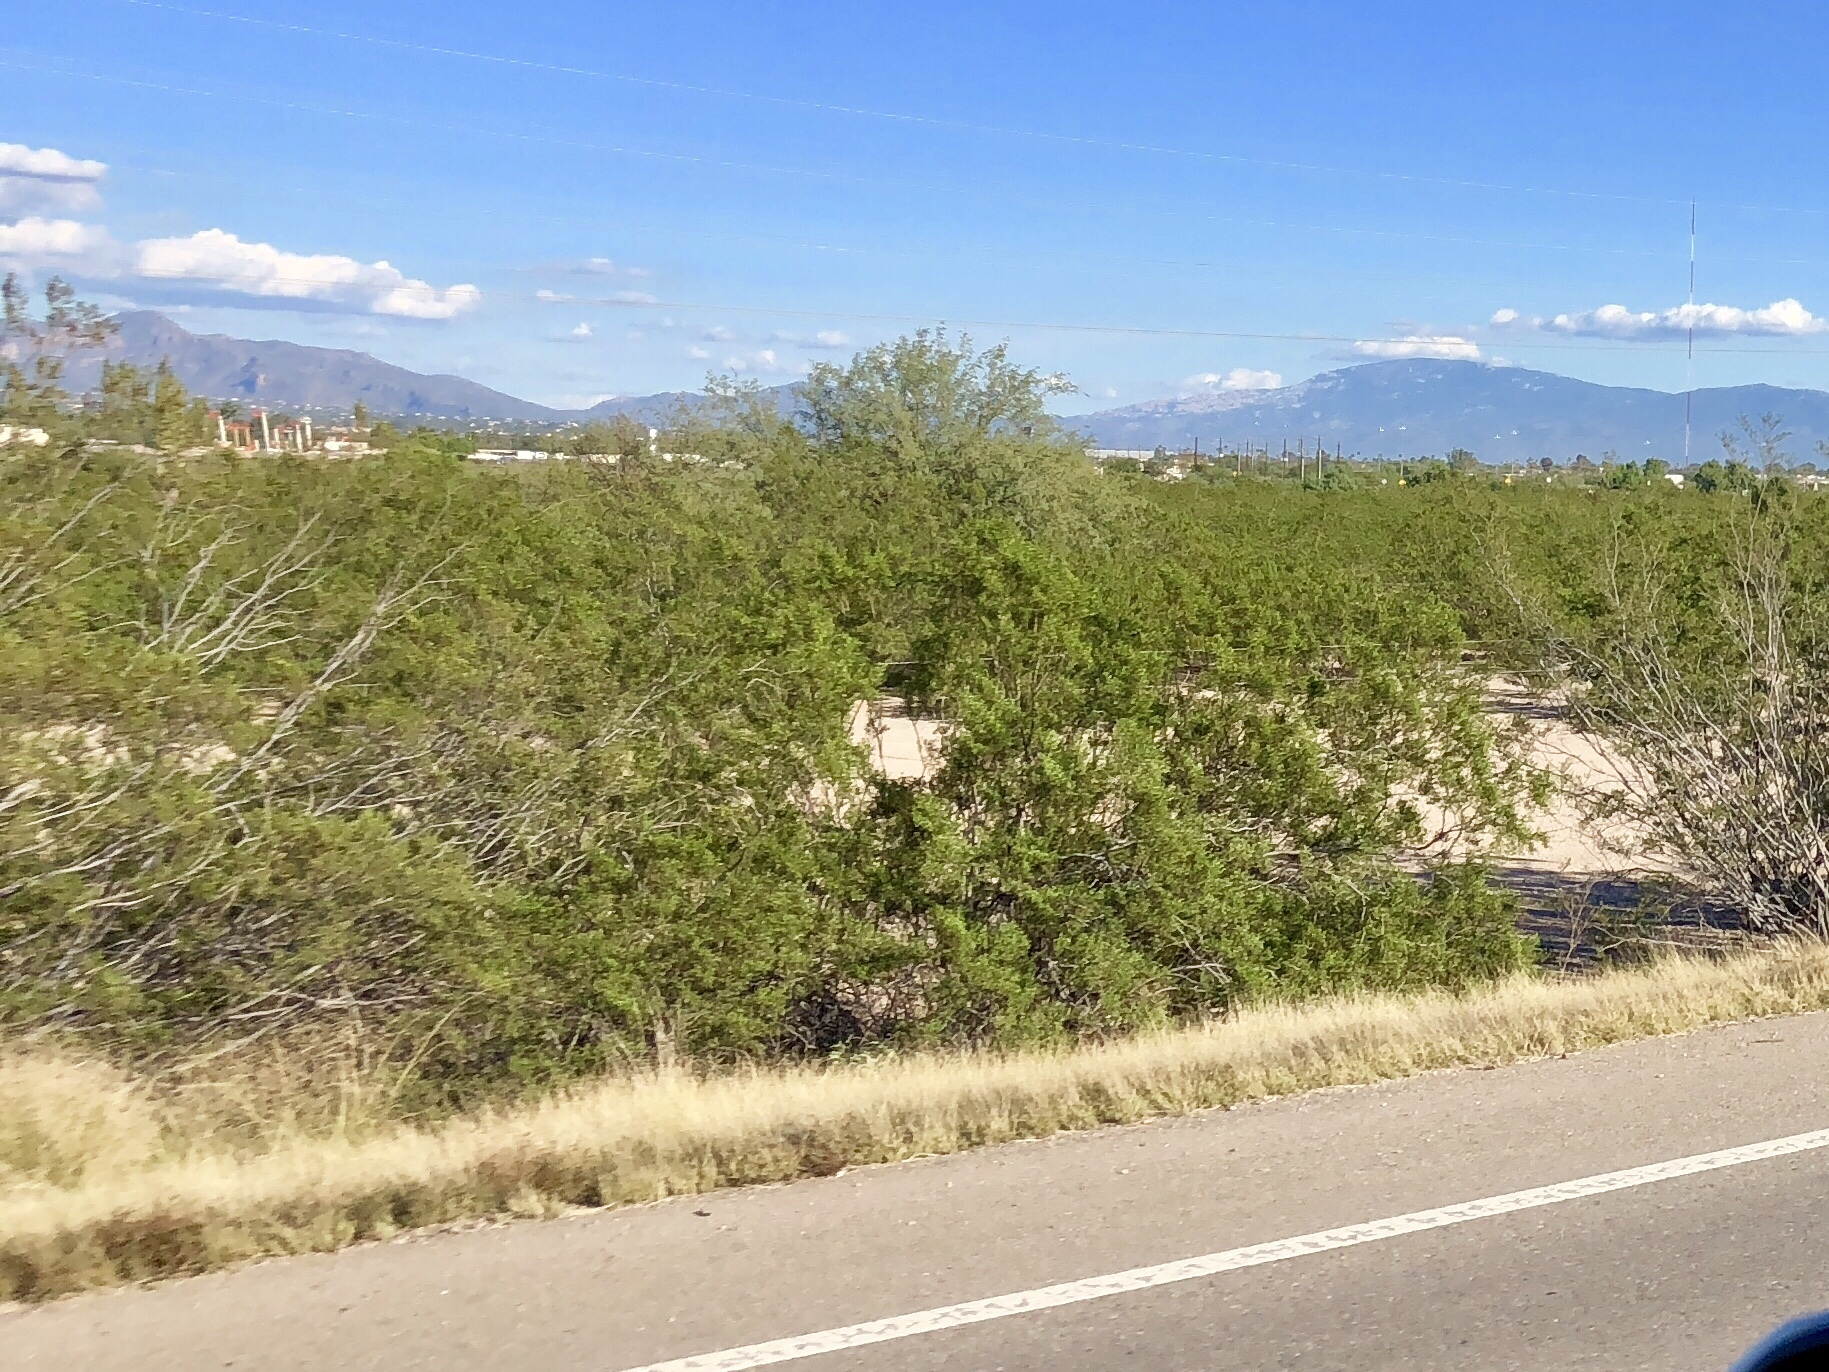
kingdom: Plantae
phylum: Tracheophyta
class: Magnoliopsida
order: Zygophyllales
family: Zygophyllaceae
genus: Larrea
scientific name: Larrea tridentata
